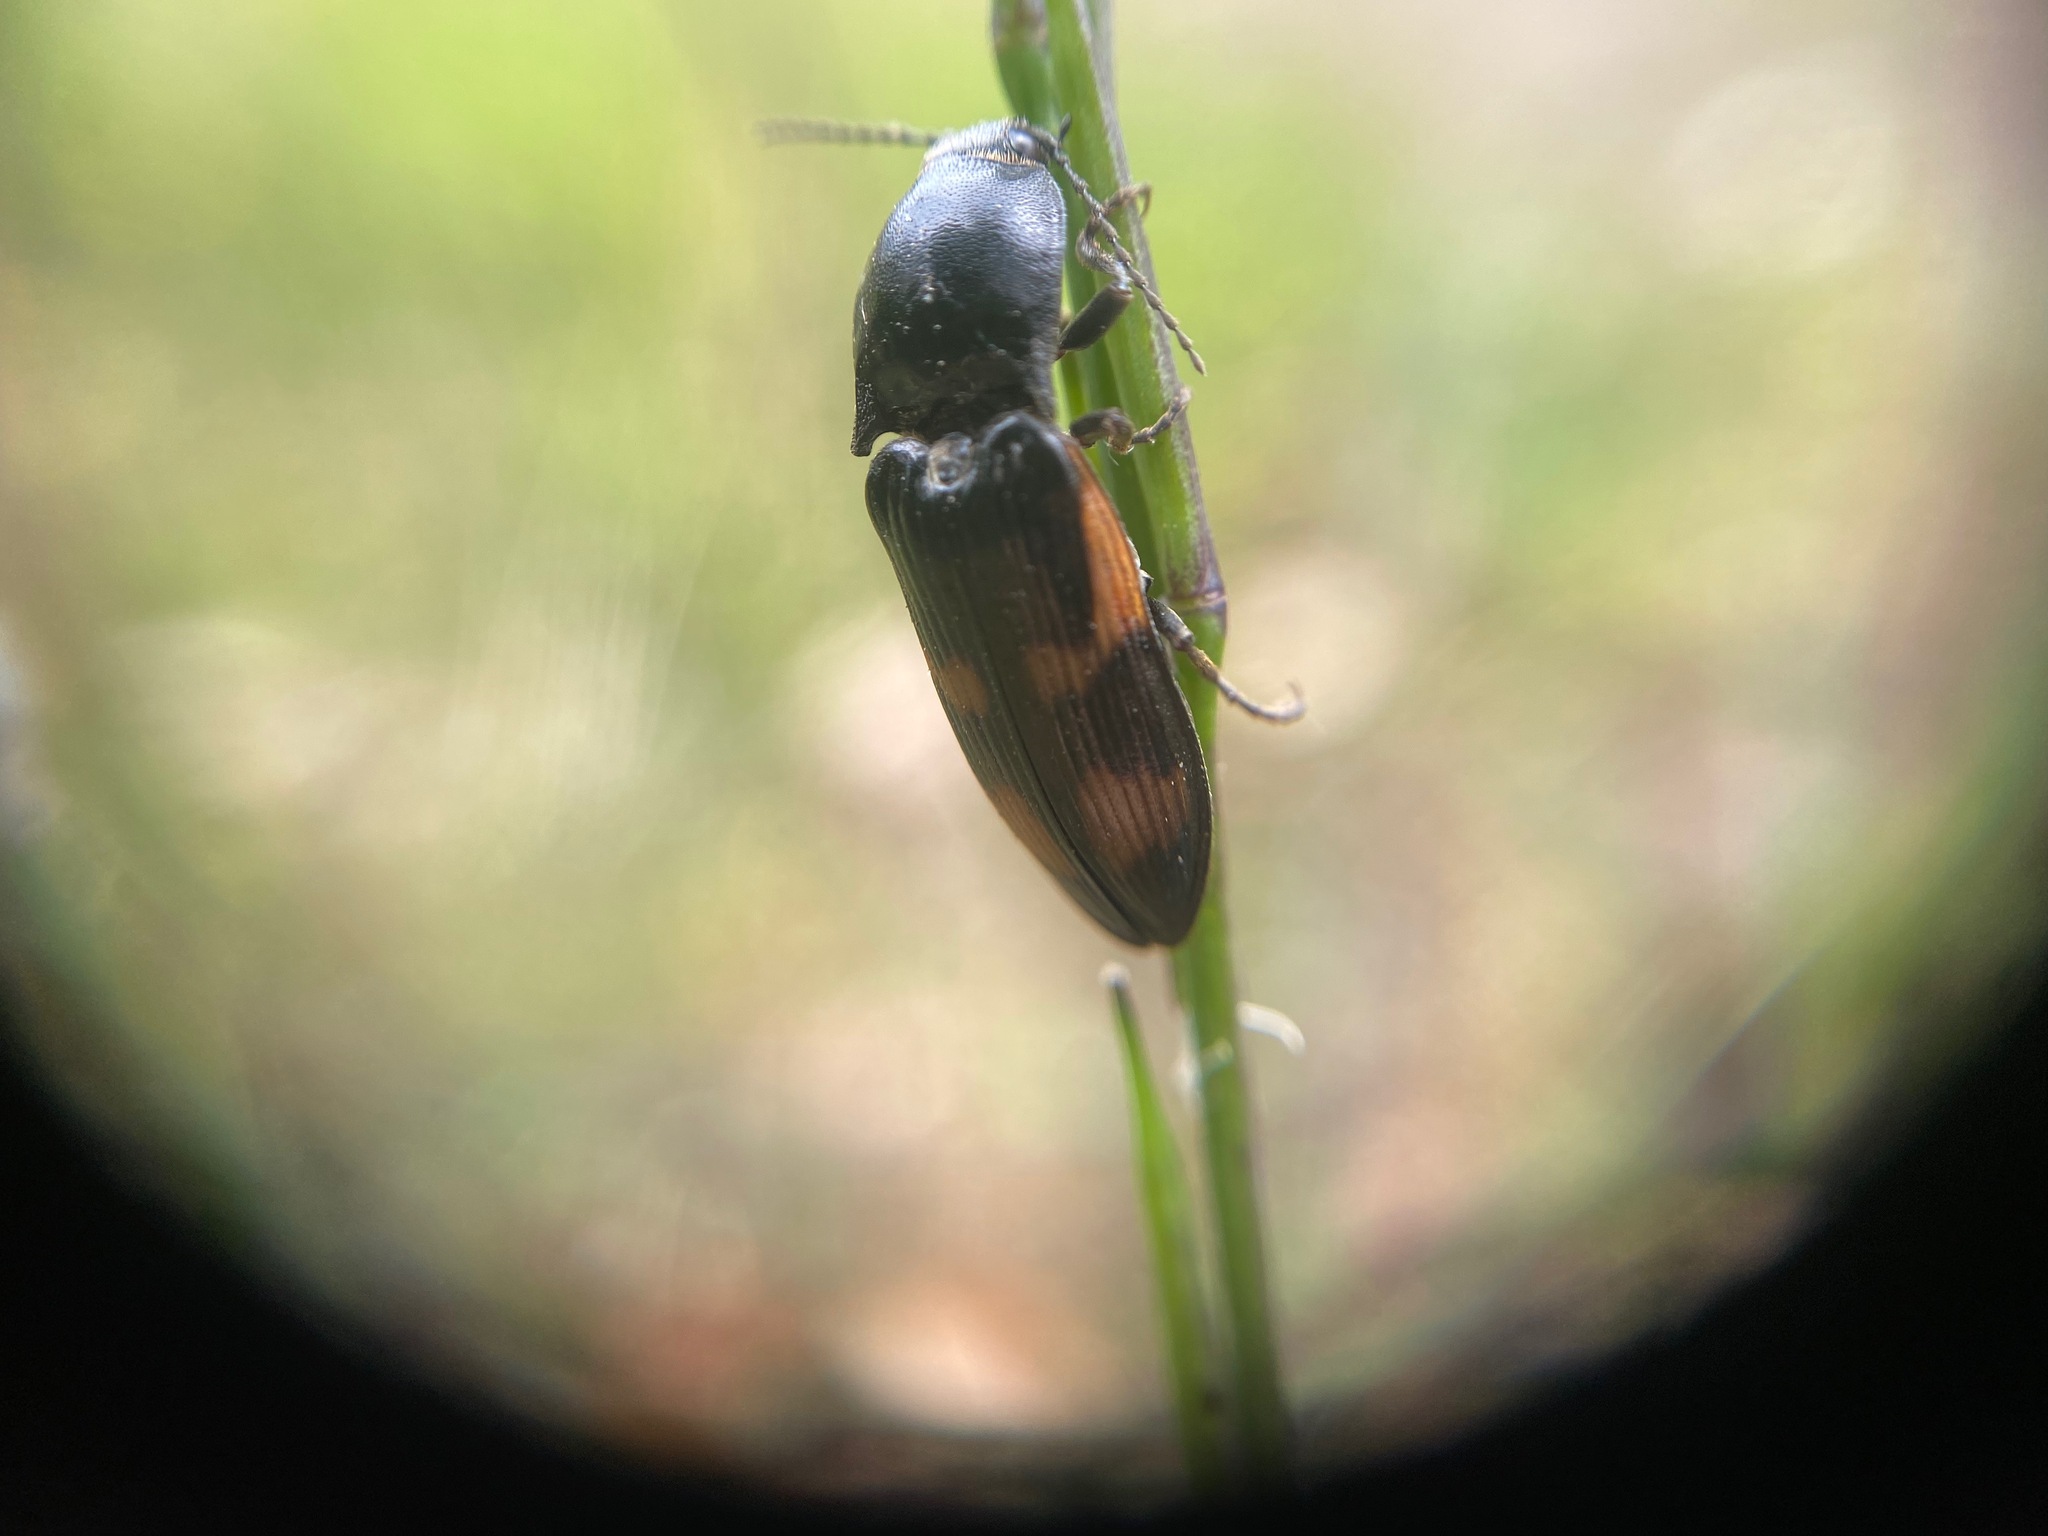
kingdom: Animalia
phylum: Arthropoda
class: Insecta
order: Coleoptera
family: Elateridae
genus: Selatosomus
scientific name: Selatosomus suckleyi
